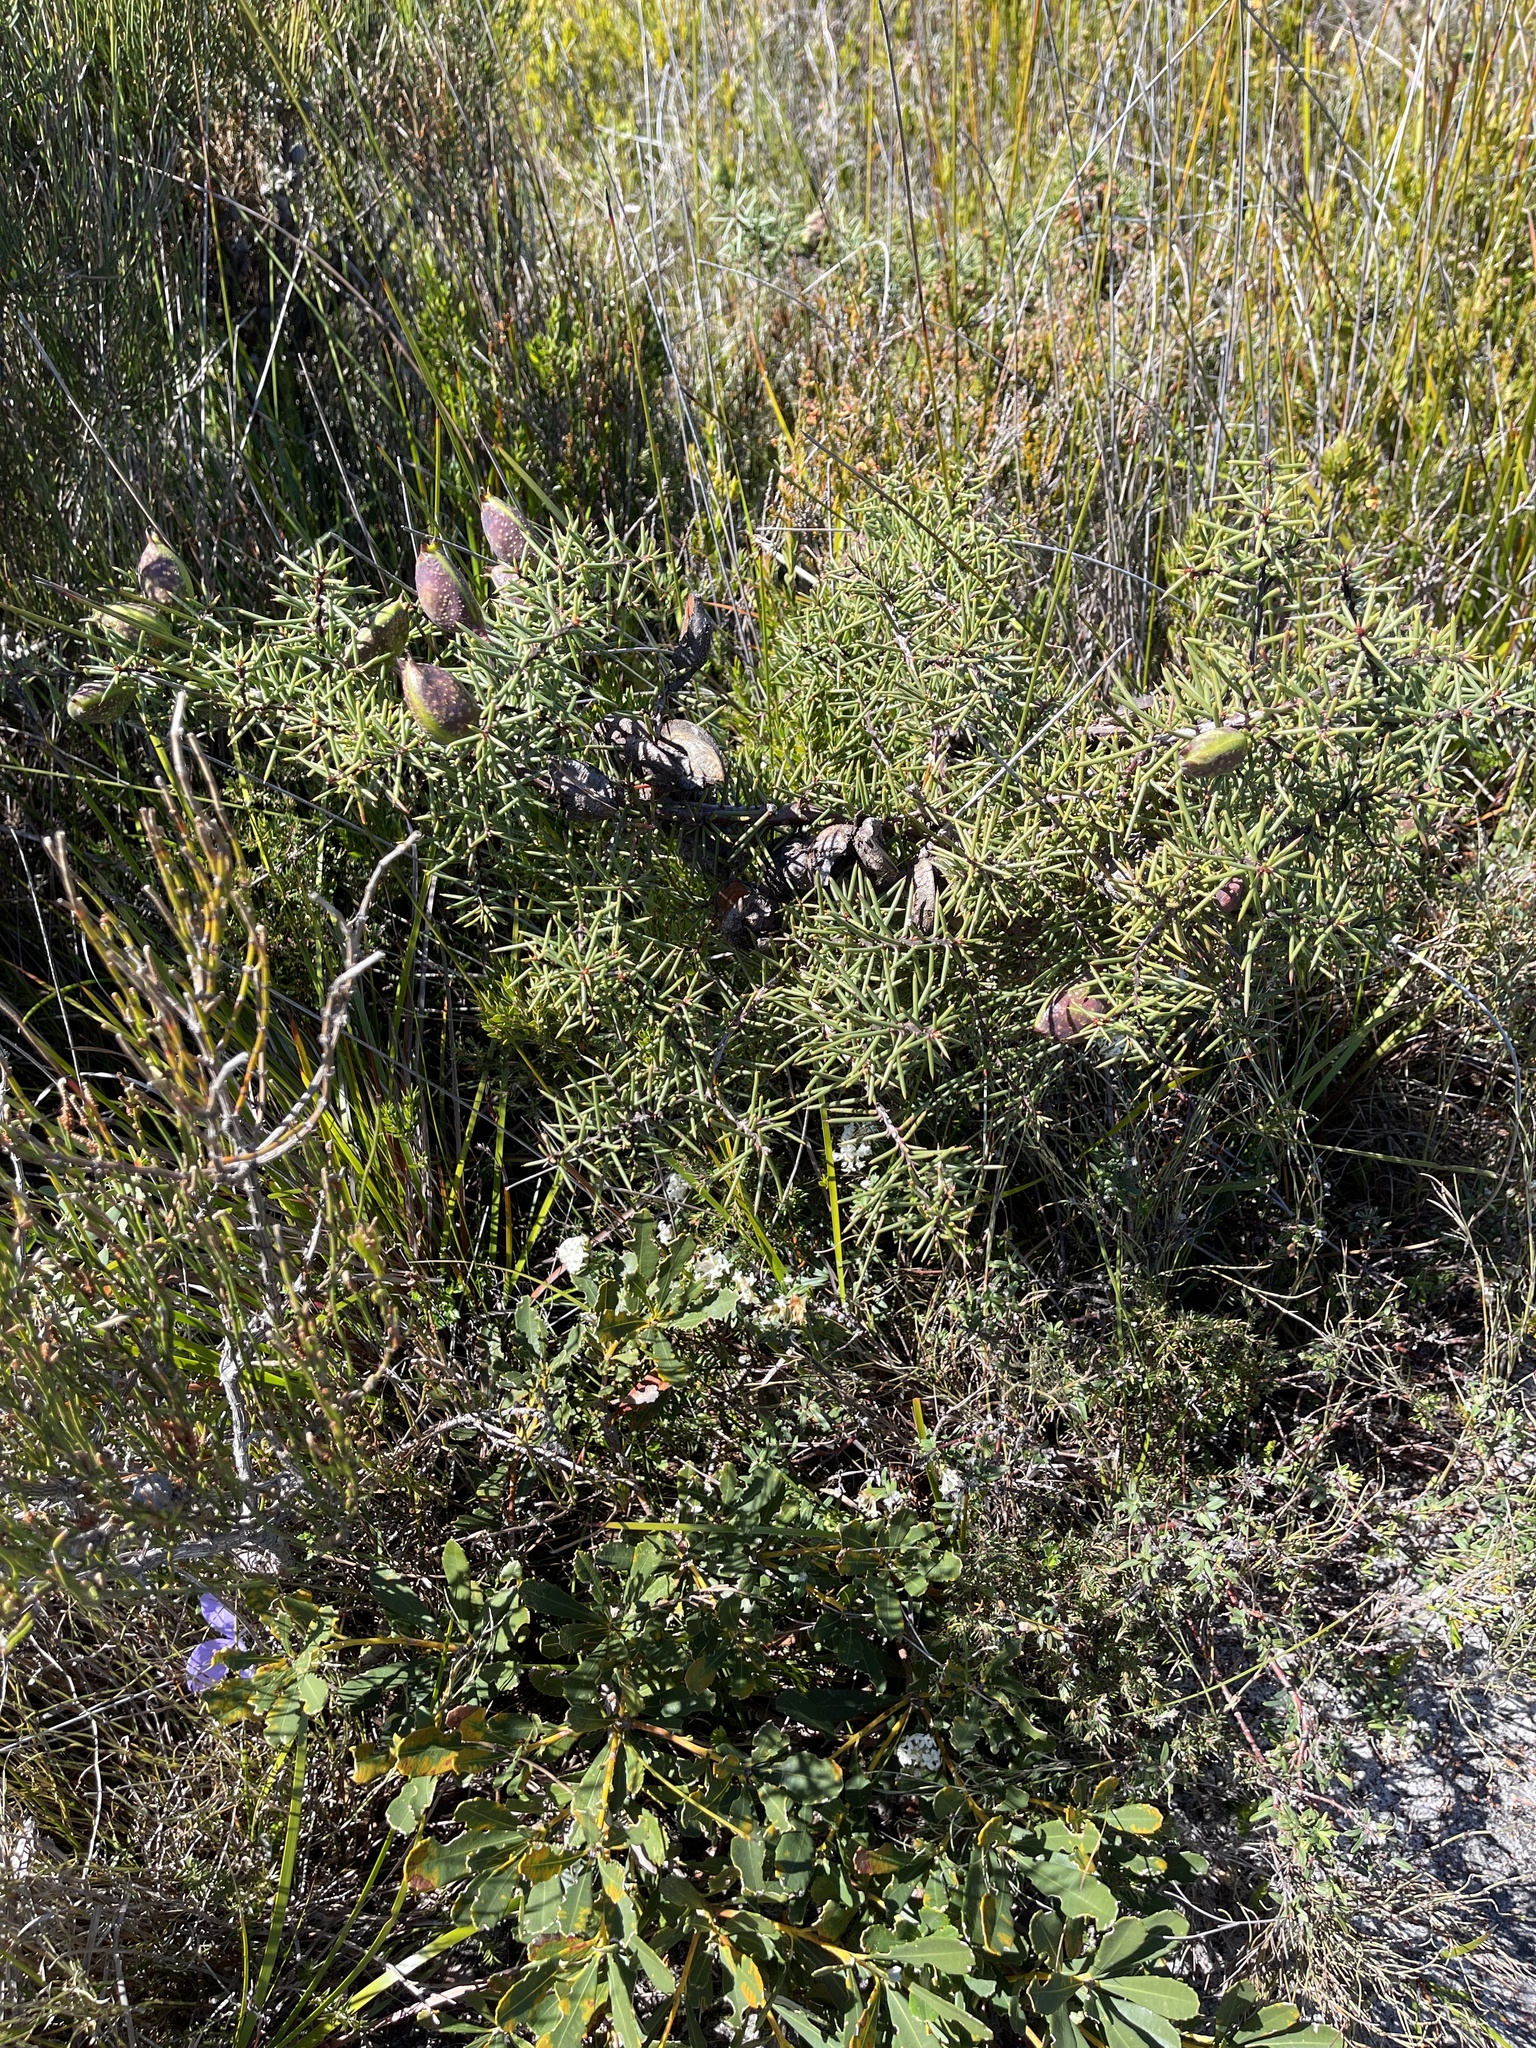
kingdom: Plantae
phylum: Tracheophyta
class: Magnoliopsida
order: Proteales
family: Proteaceae
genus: Hakea
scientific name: Hakea decurrens
